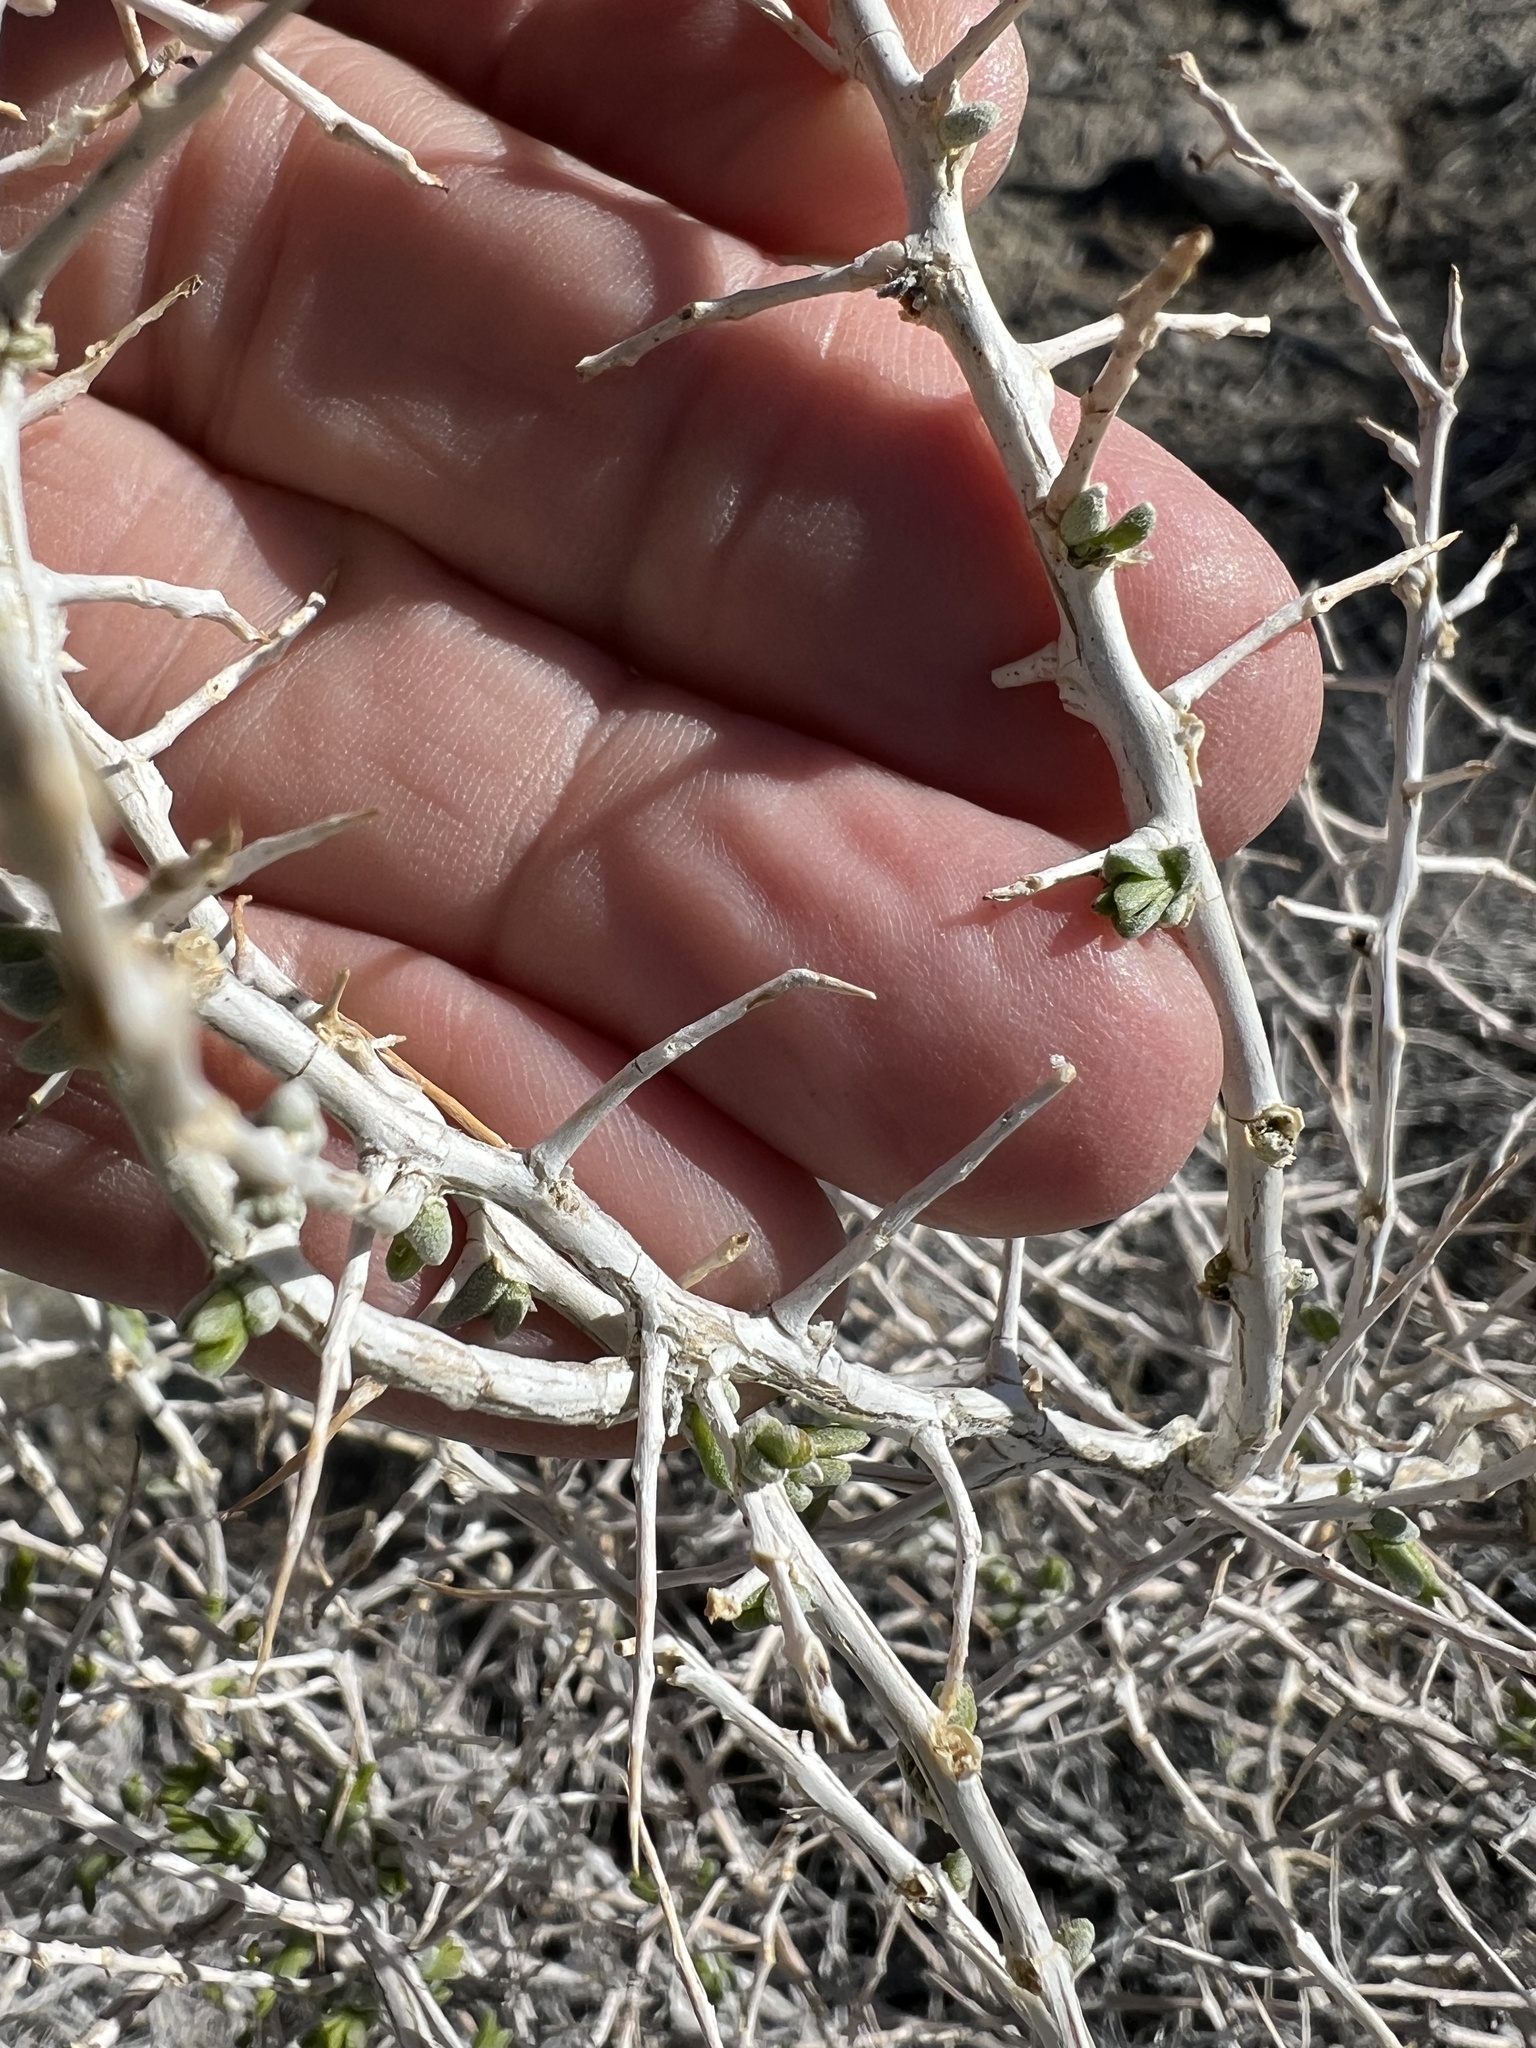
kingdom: Plantae
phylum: Tracheophyta
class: Magnoliopsida
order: Caryophyllales
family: Sarcobataceae
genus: Sarcobatus
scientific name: Sarcobatus vermiculatus
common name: Greasewood
